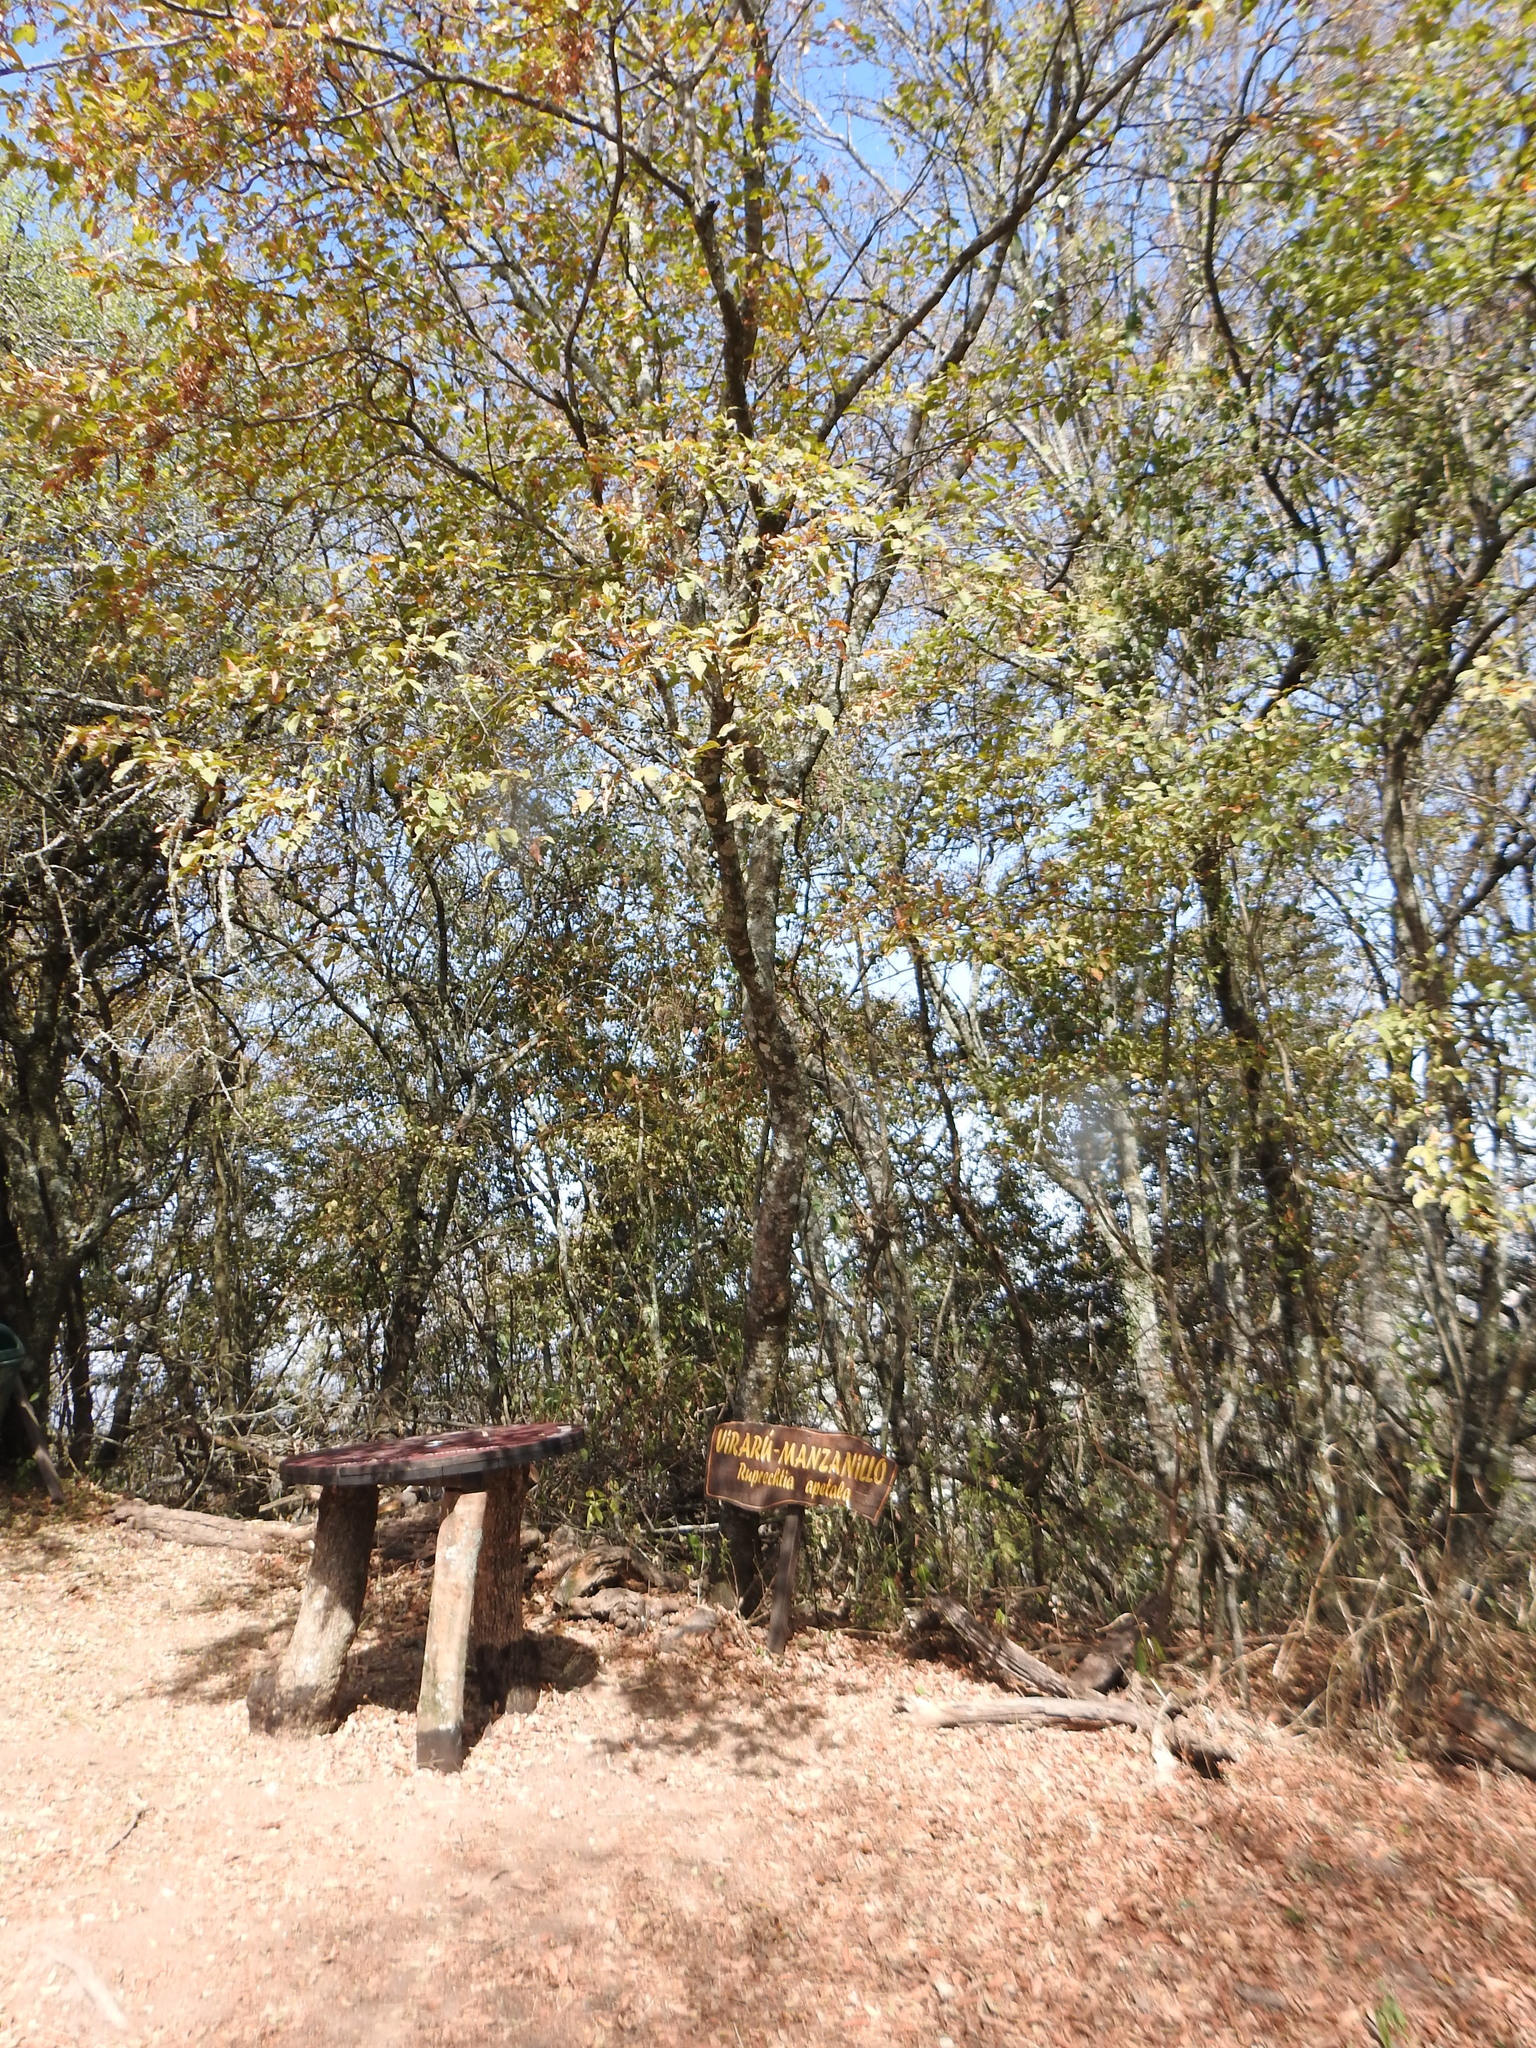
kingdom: Plantae
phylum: Tracheophyta
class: Magnoliopsida
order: Caryophyllales
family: Polygonaceae
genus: Ruprechtia
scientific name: Ruprechtia apetala
